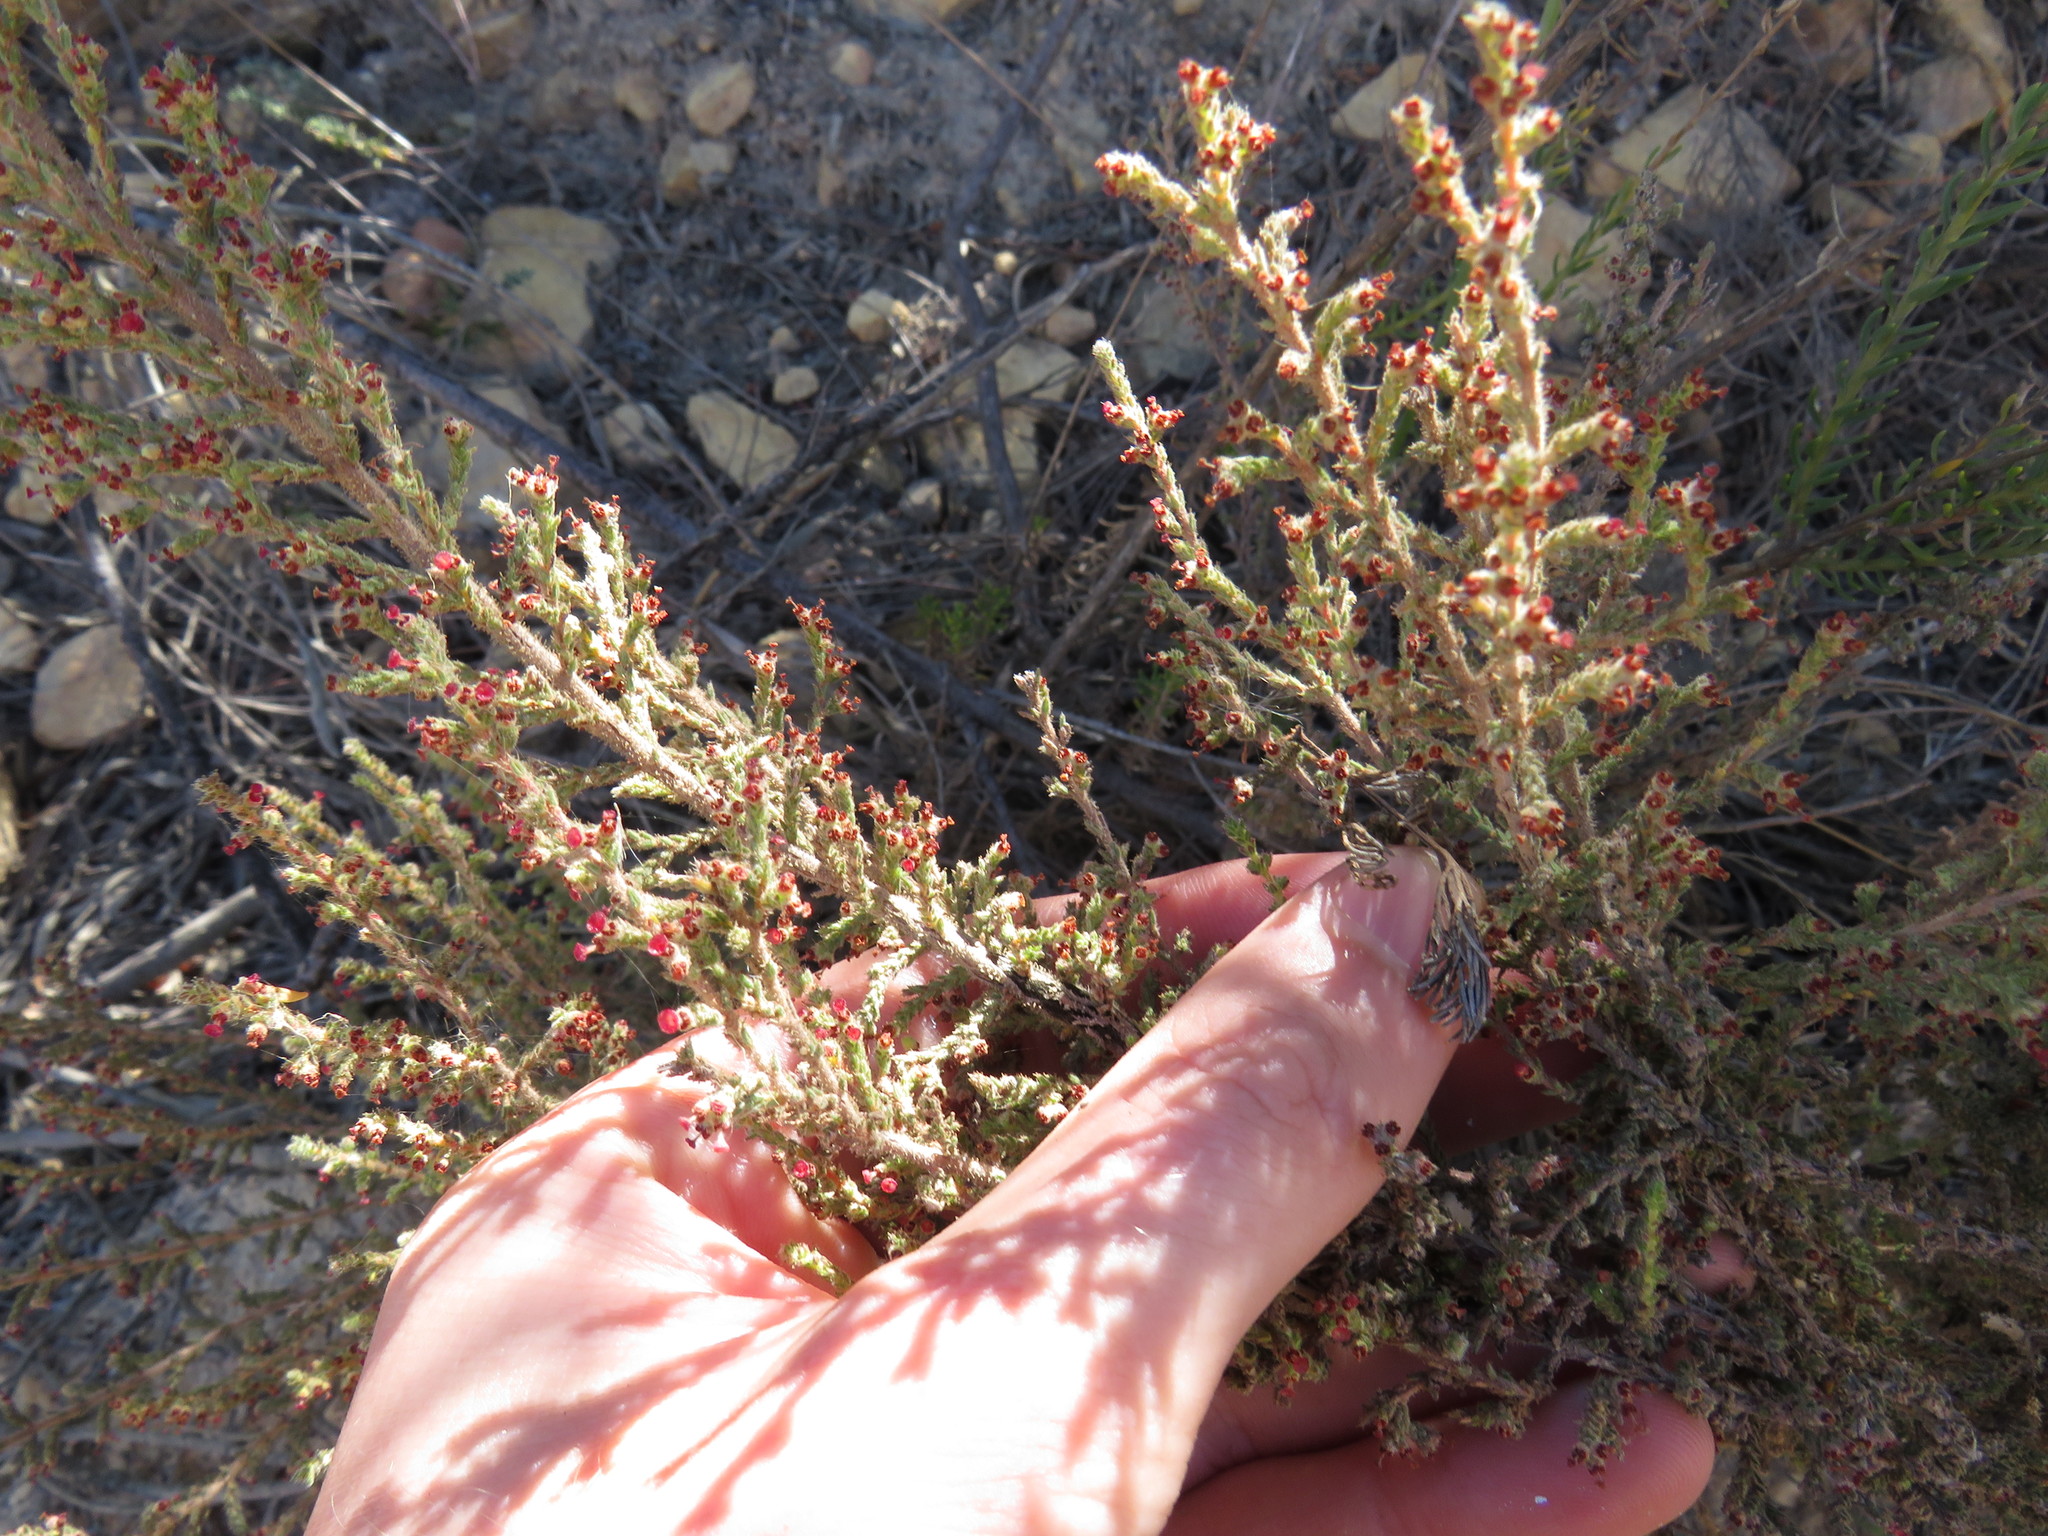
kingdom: Plantae
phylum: Tracheophyta
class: Magnoliopsida
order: Ericales
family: Ericaceae
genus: Erica
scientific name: Erica rigidula
